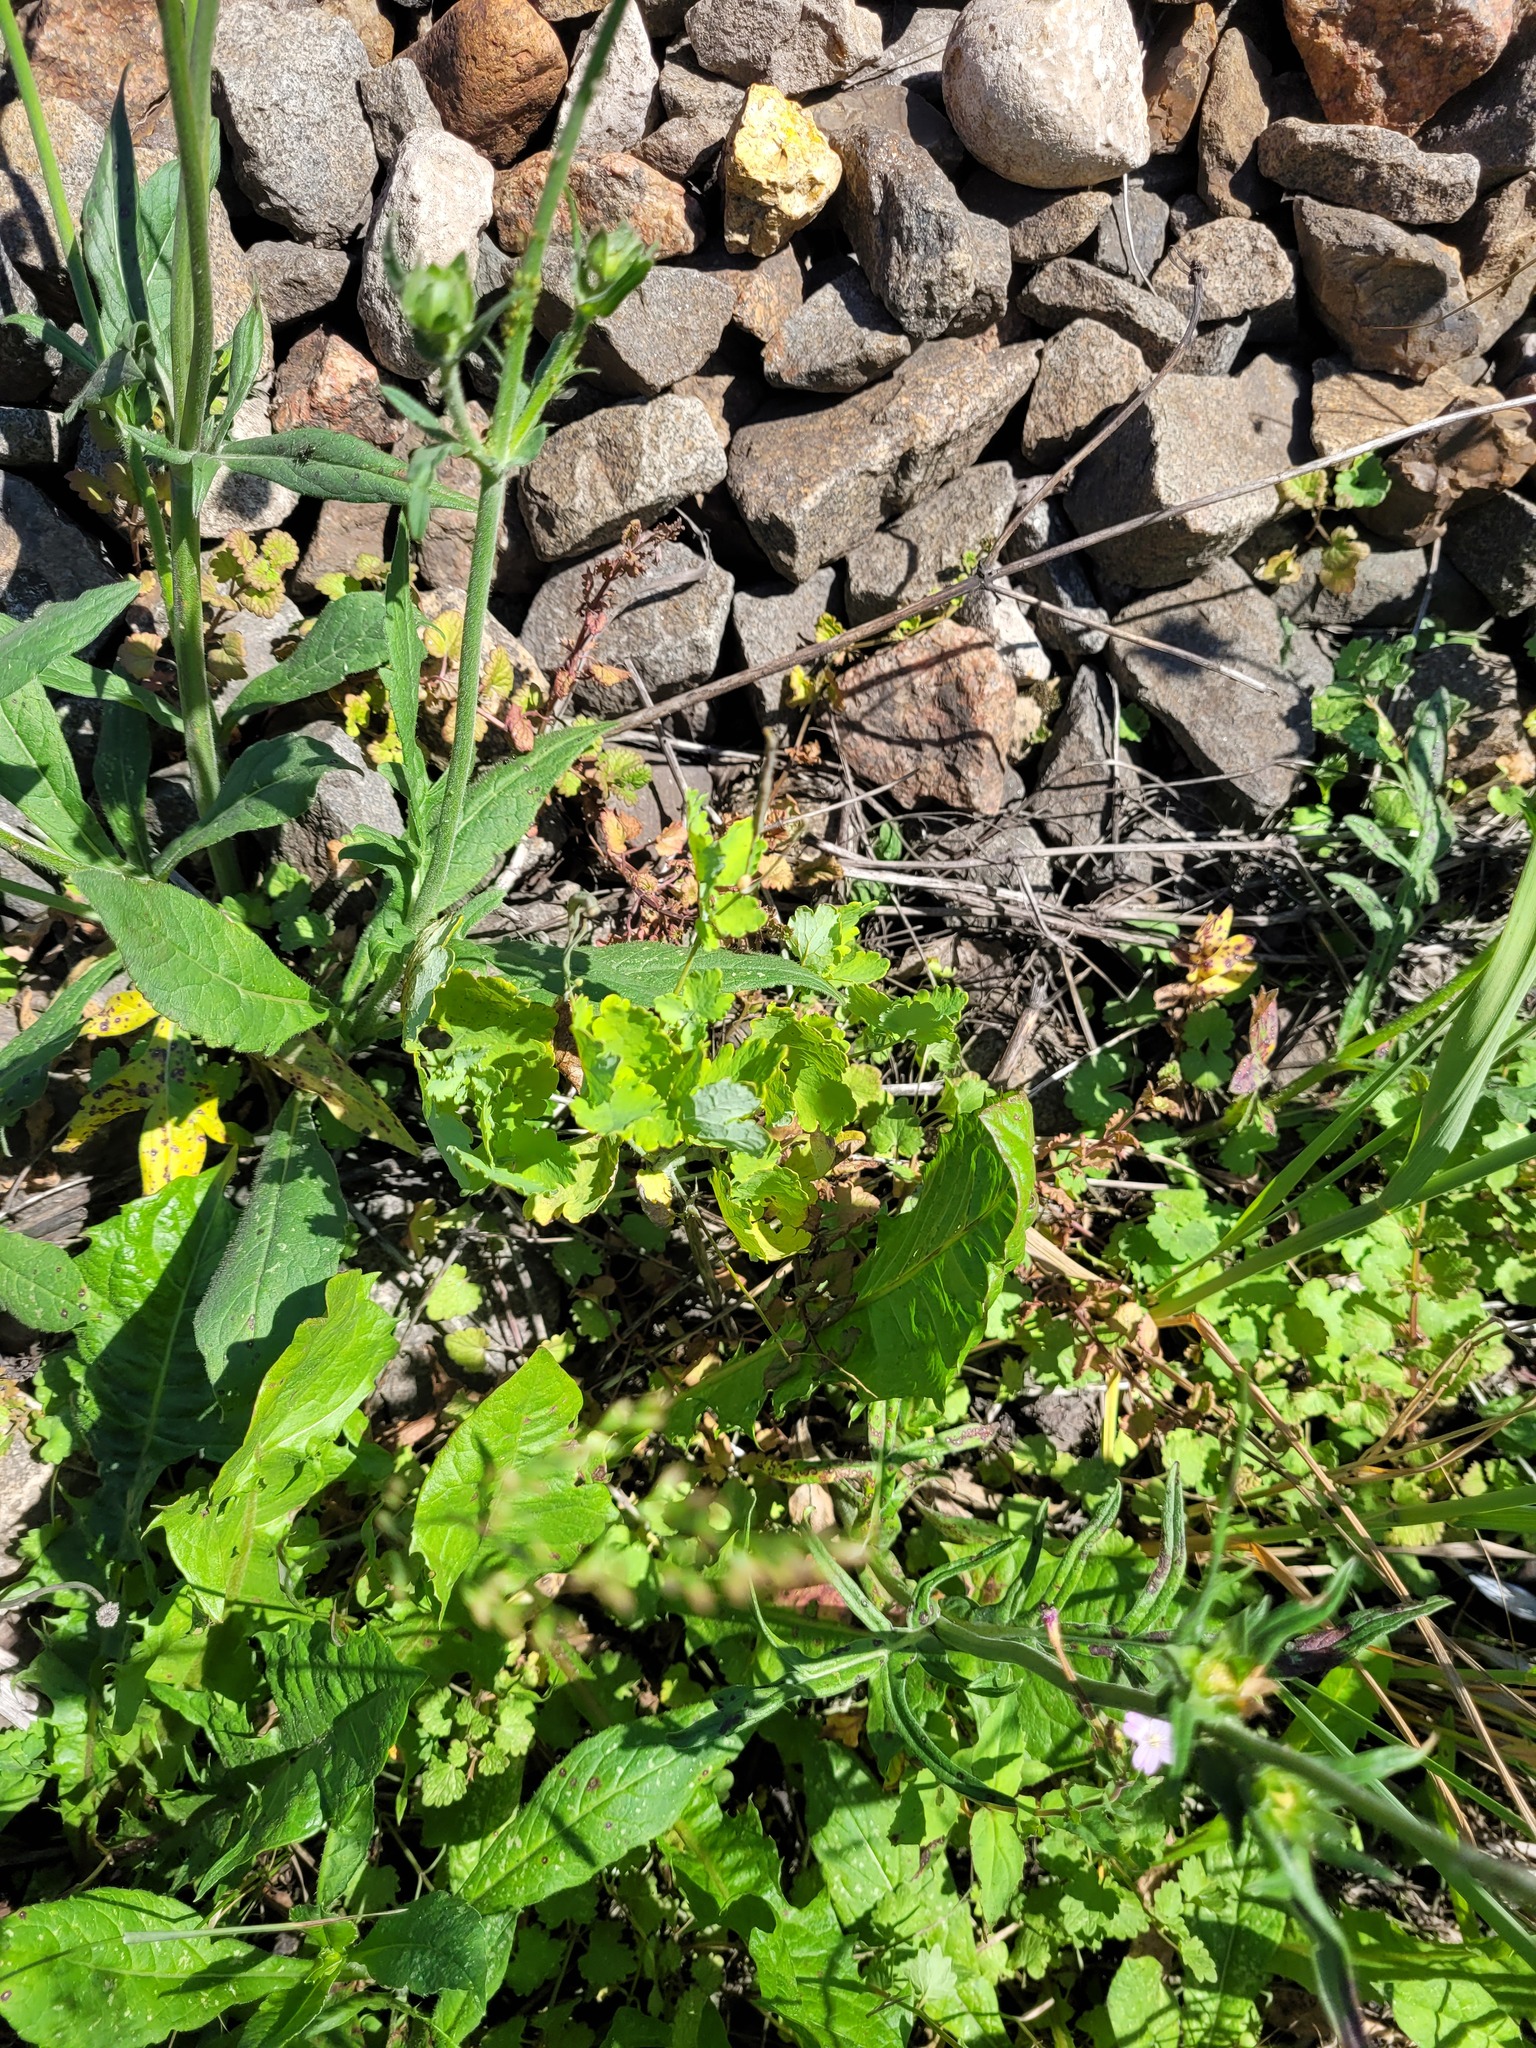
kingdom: Plantae
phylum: Tracheophyta
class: Magnoliopsida
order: Ranunculales
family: Papaveraceae
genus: Chelidonium
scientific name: Chelidonium majus
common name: Greater celandine
